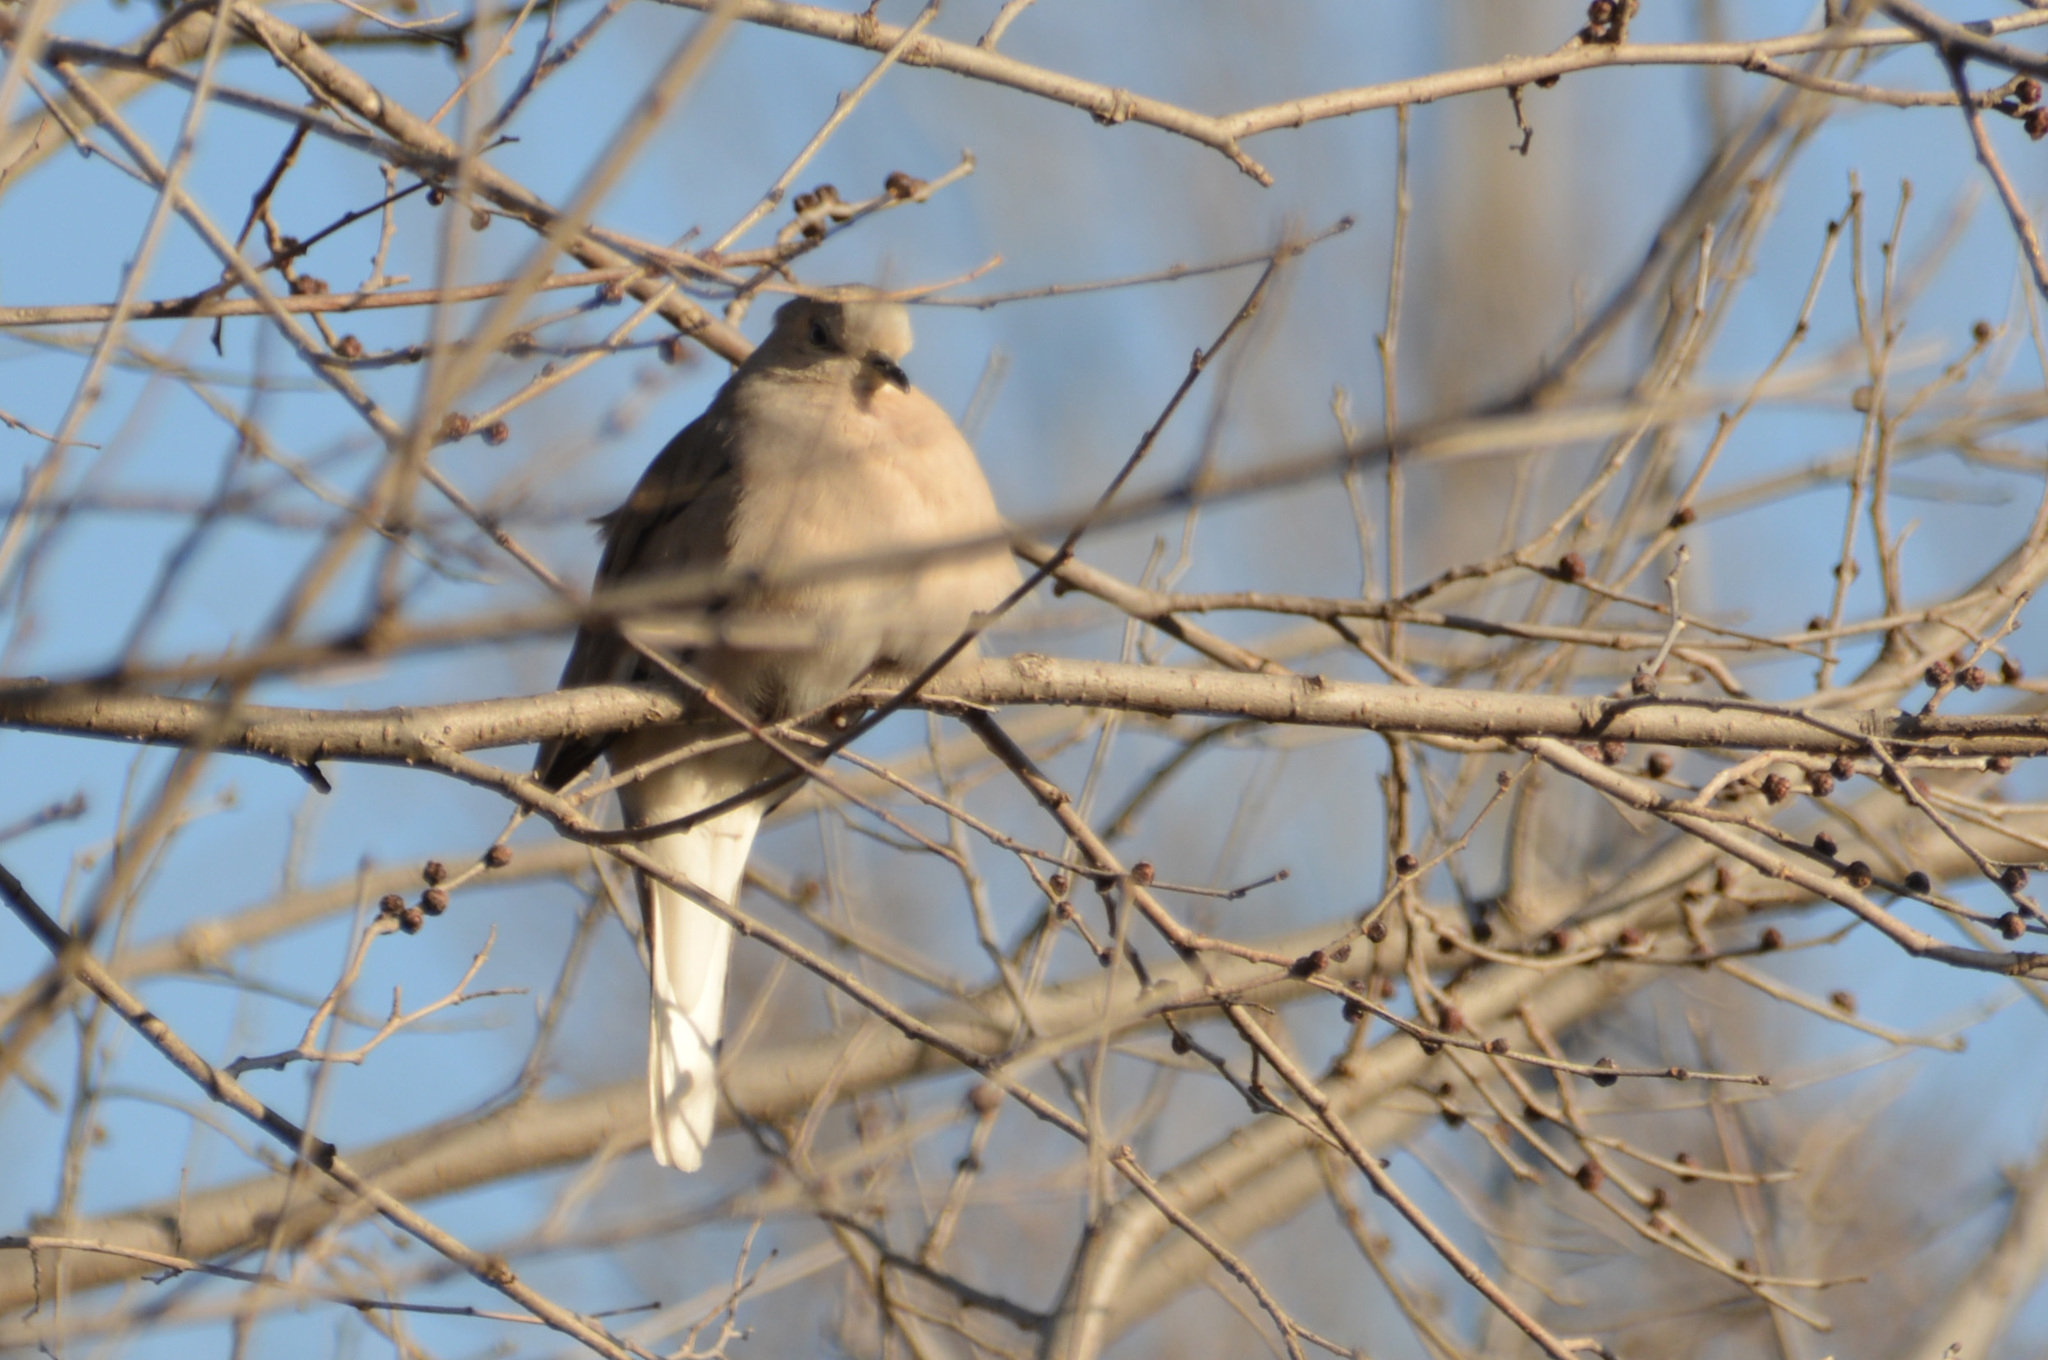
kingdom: Animalia
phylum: Chordata
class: Aves
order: Columbiformes
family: Columbidae
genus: Columbina
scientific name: Columbina picui
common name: Picui ground dove
